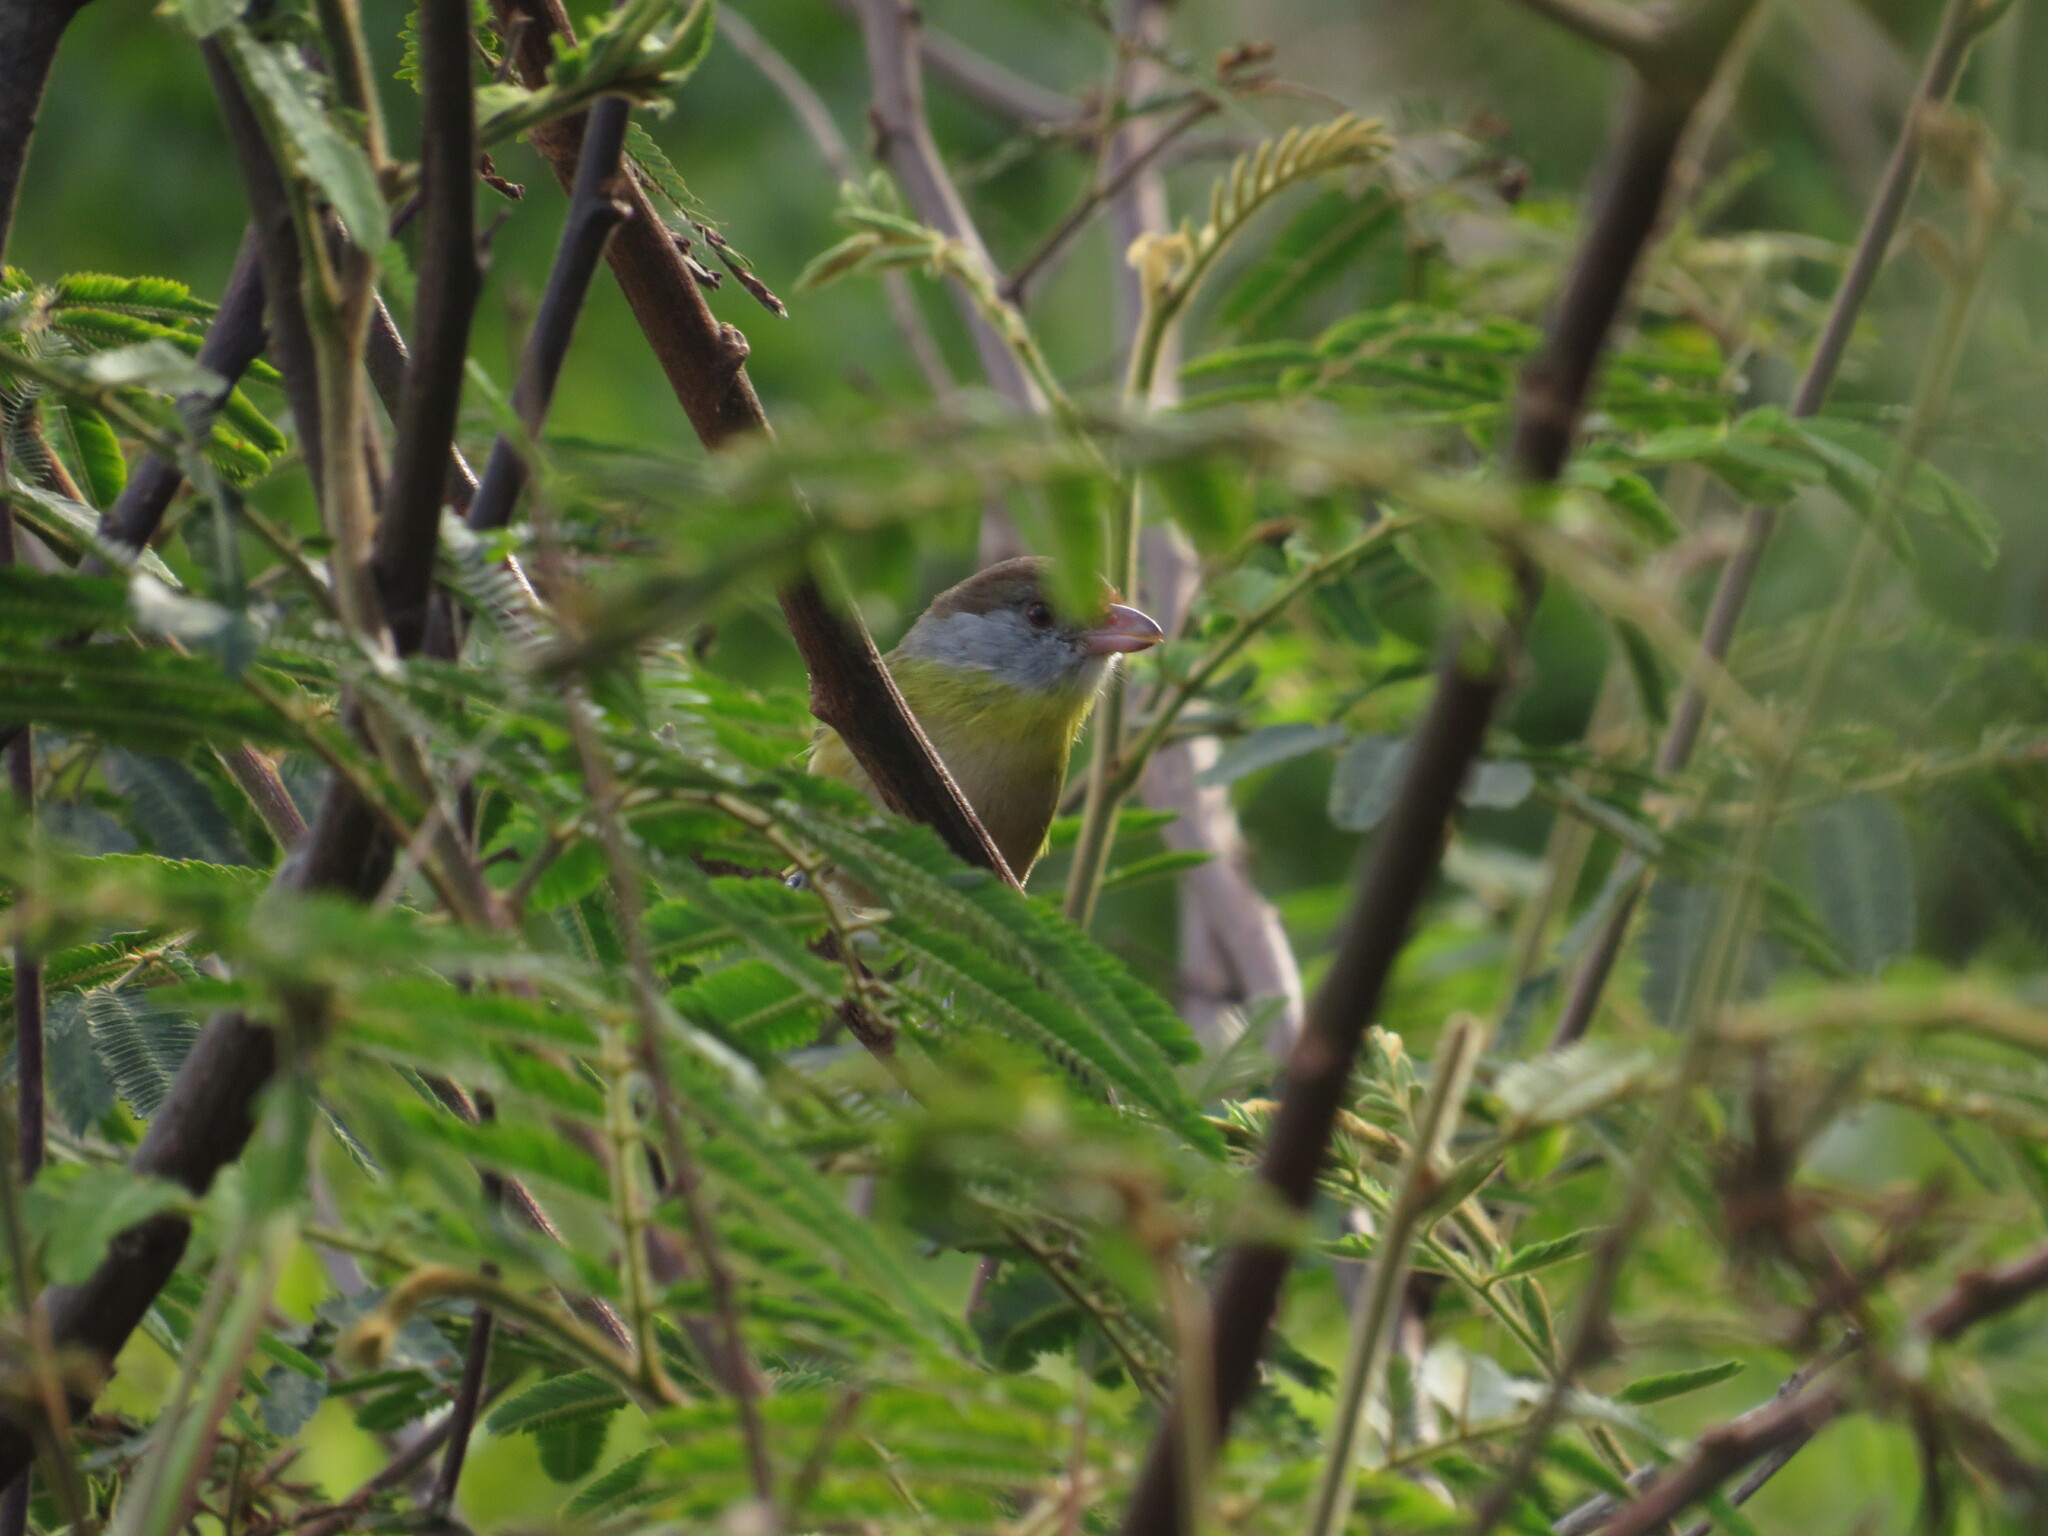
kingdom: Animalia
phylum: Chordata
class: Aves
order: Passeriformes
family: Vireonidae
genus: Cyclarhis
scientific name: Cyclarhis gujanensis
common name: Rufous-browed peppershrike
